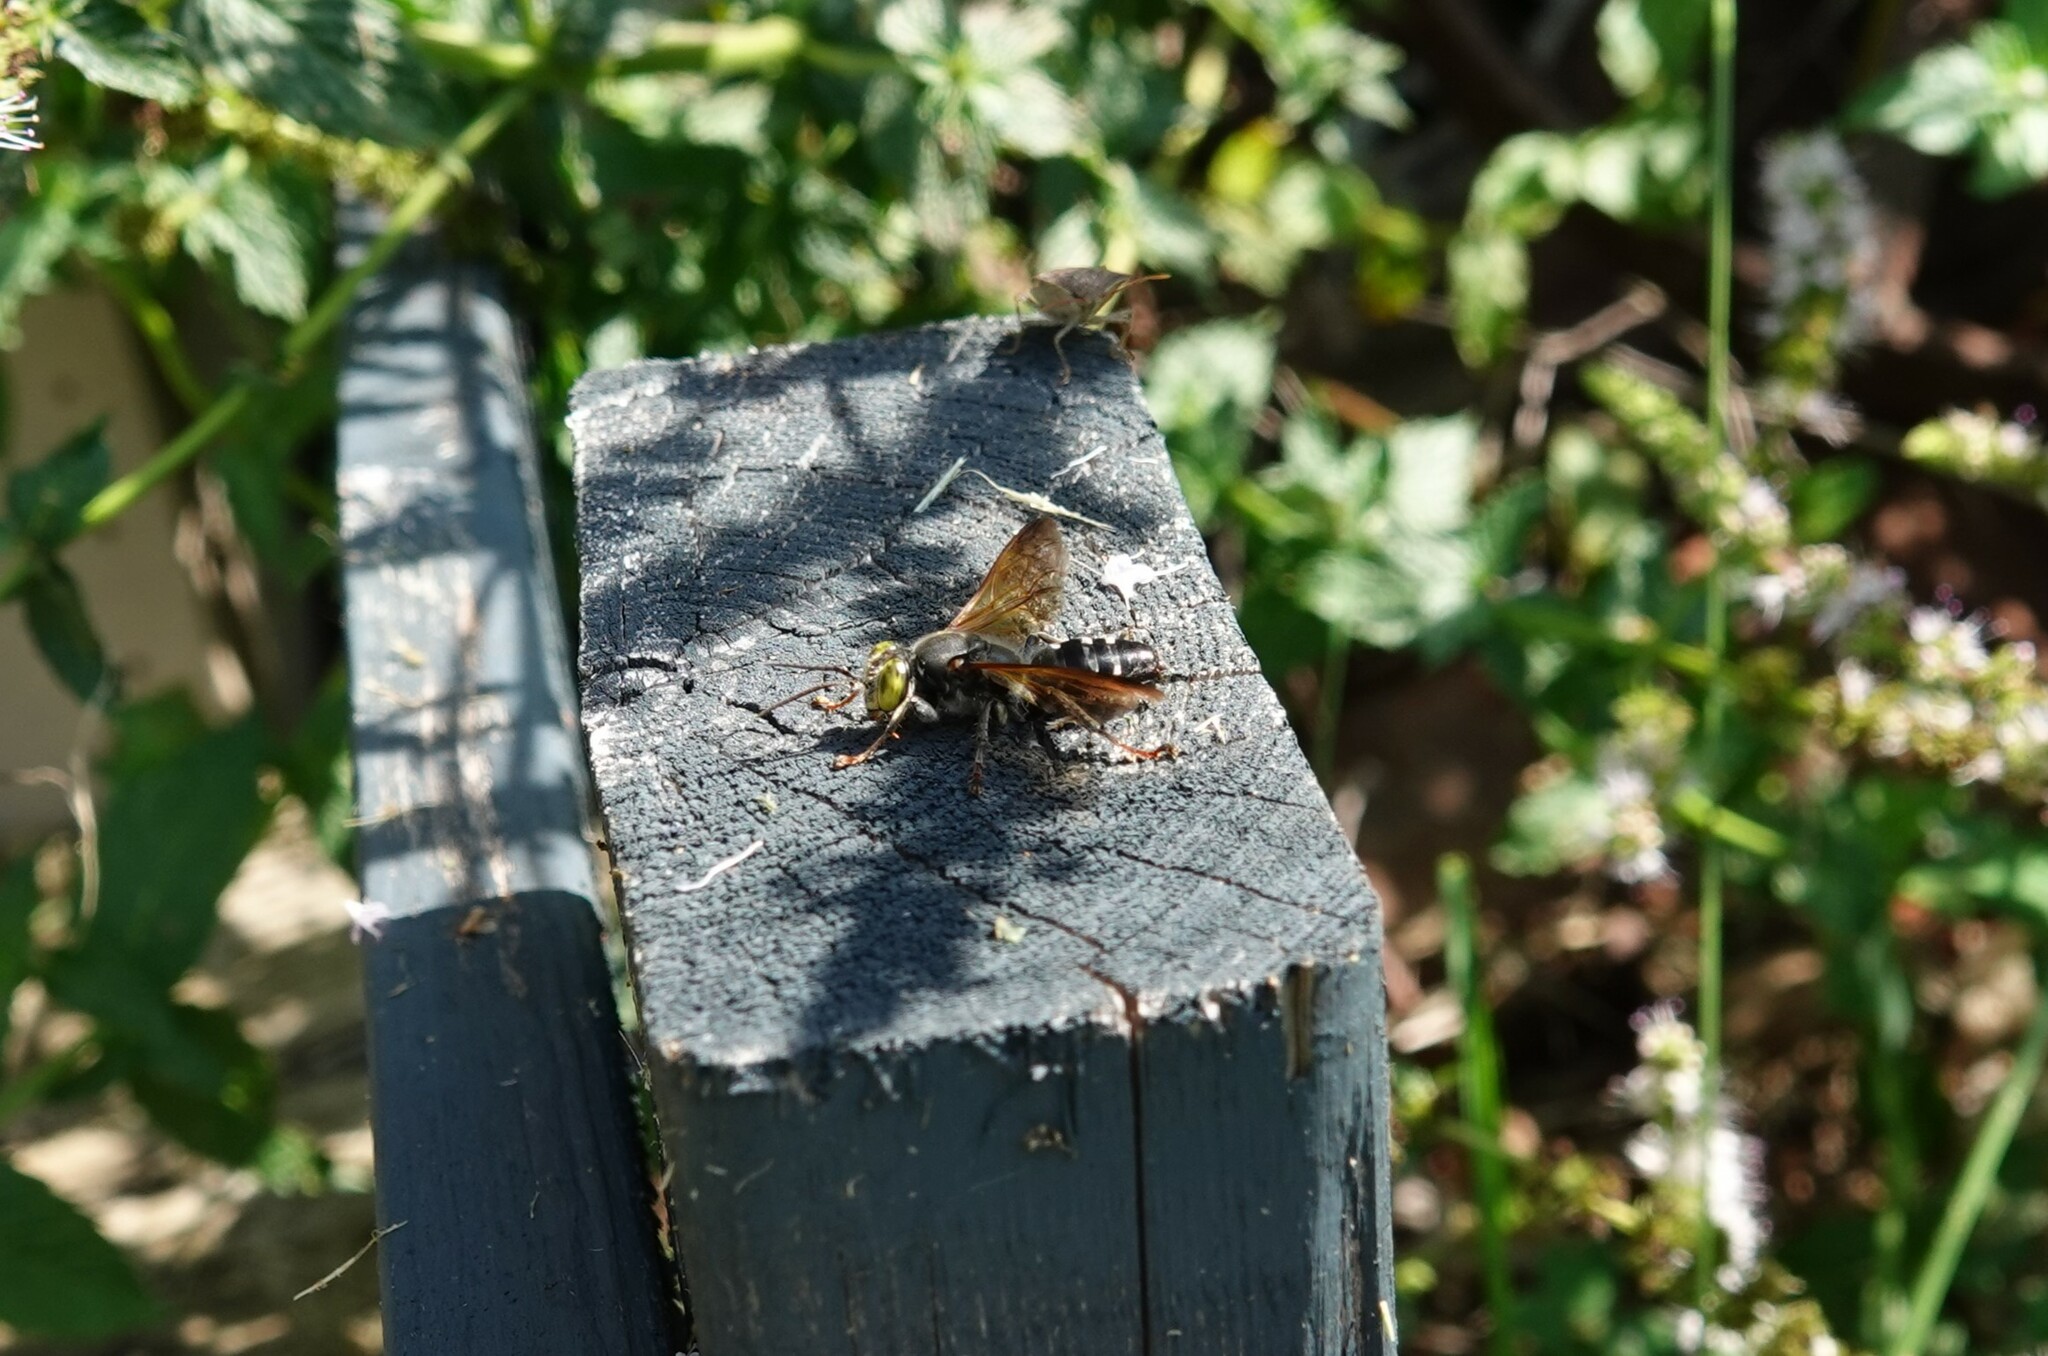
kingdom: Animalia
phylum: Arthropoda
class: Insecta
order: Hymenoptera
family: Crabronidae
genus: Tachytes
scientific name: Tachytes guatemalensis
